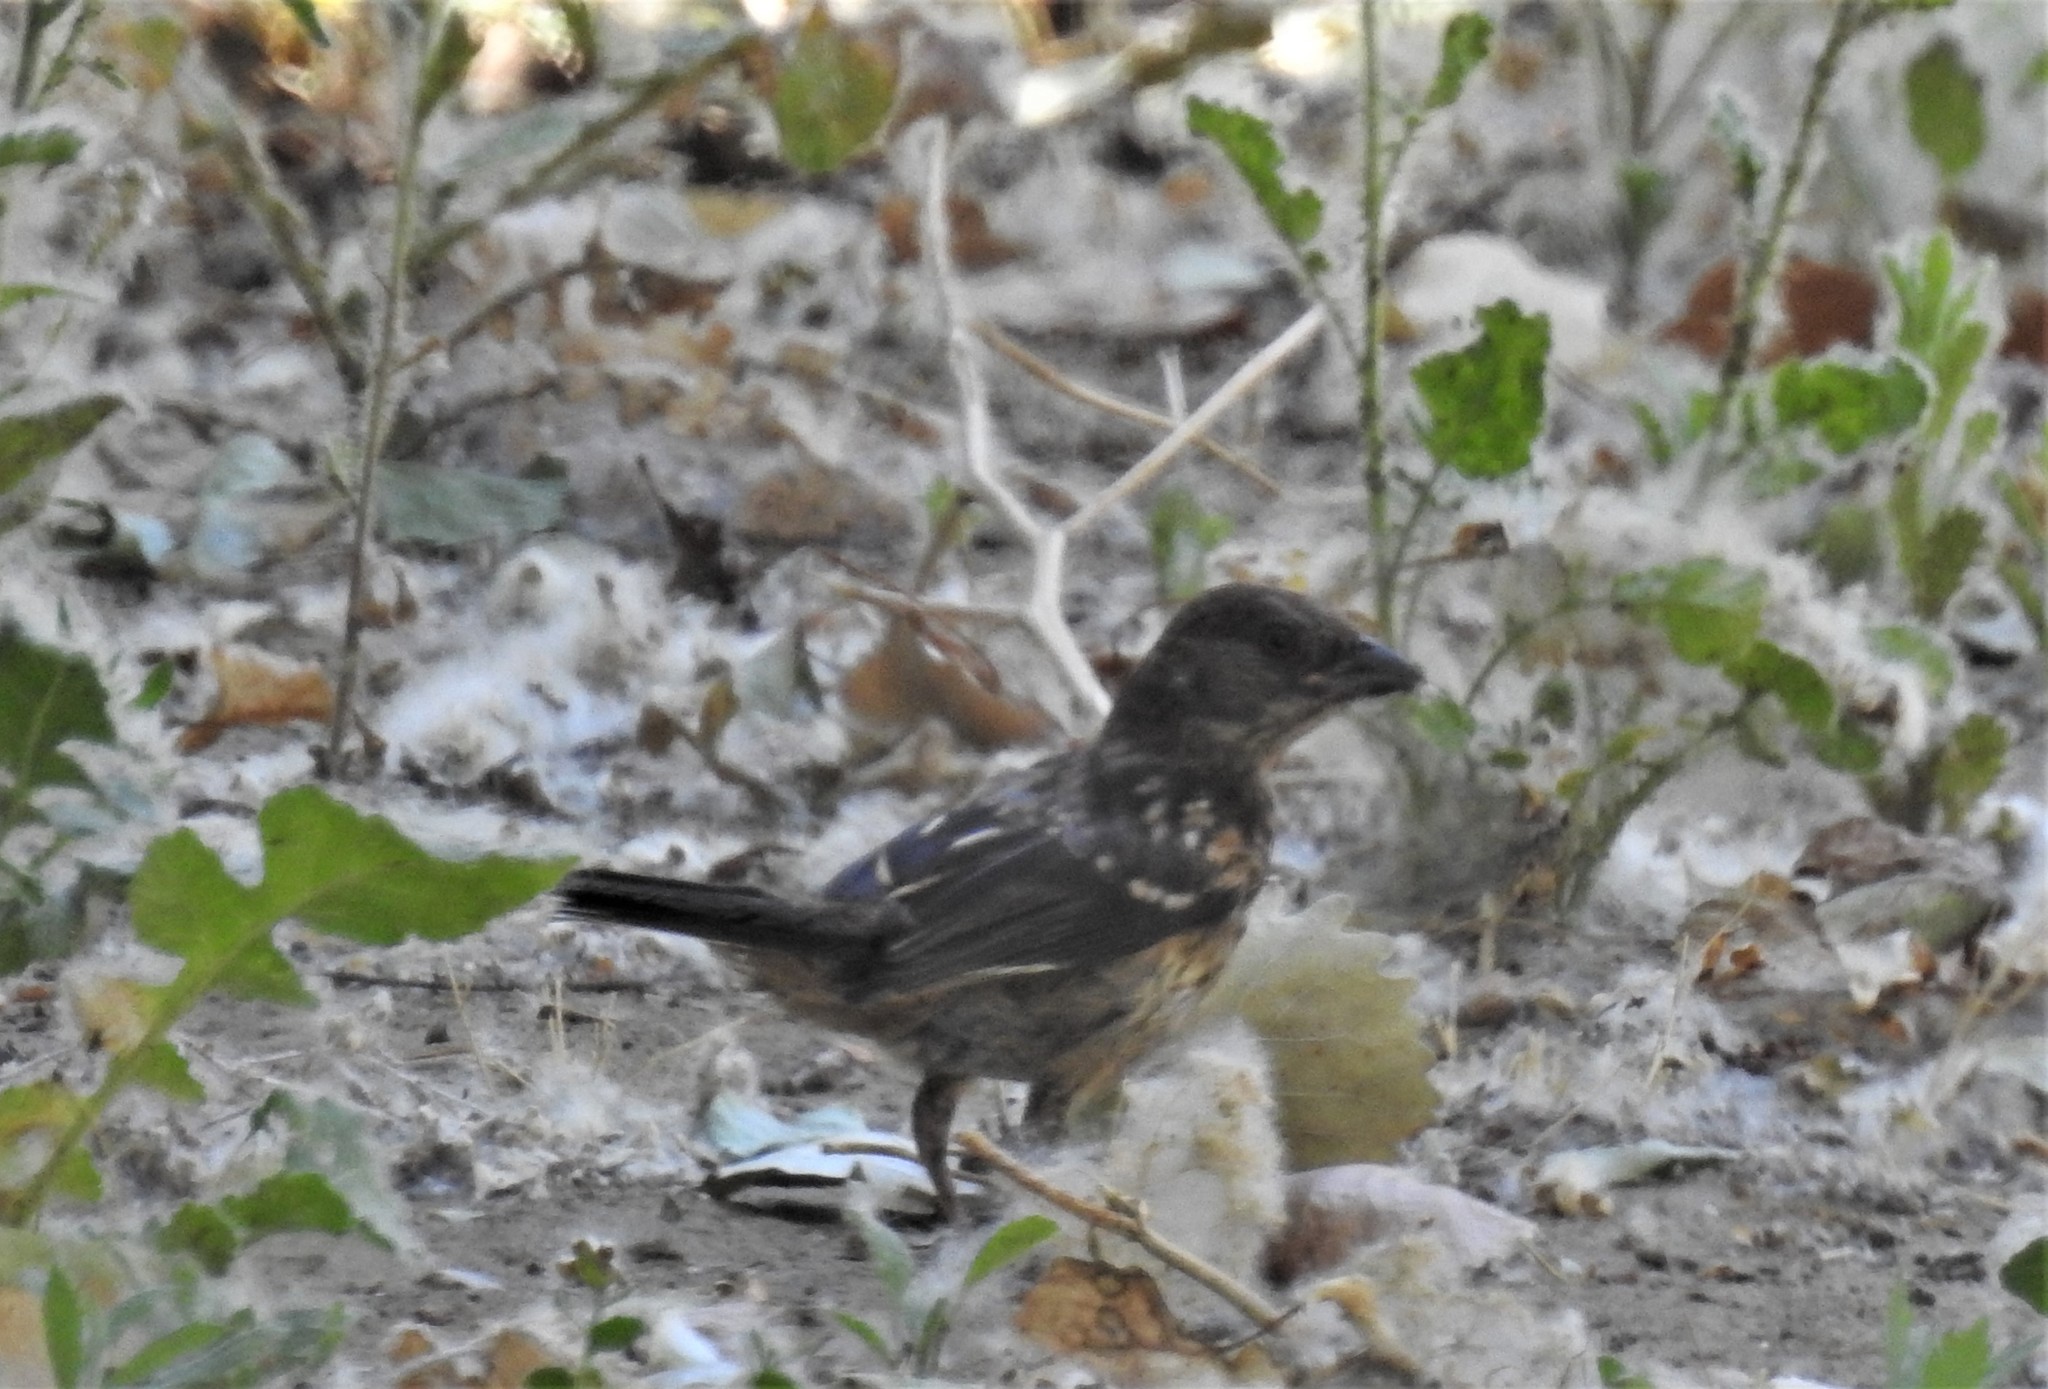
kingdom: Animalia
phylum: Chordata
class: Aves
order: Passeriformes
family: Passerellidae
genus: Pipilo
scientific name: Pipilo maculatus
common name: Spotted towhee
